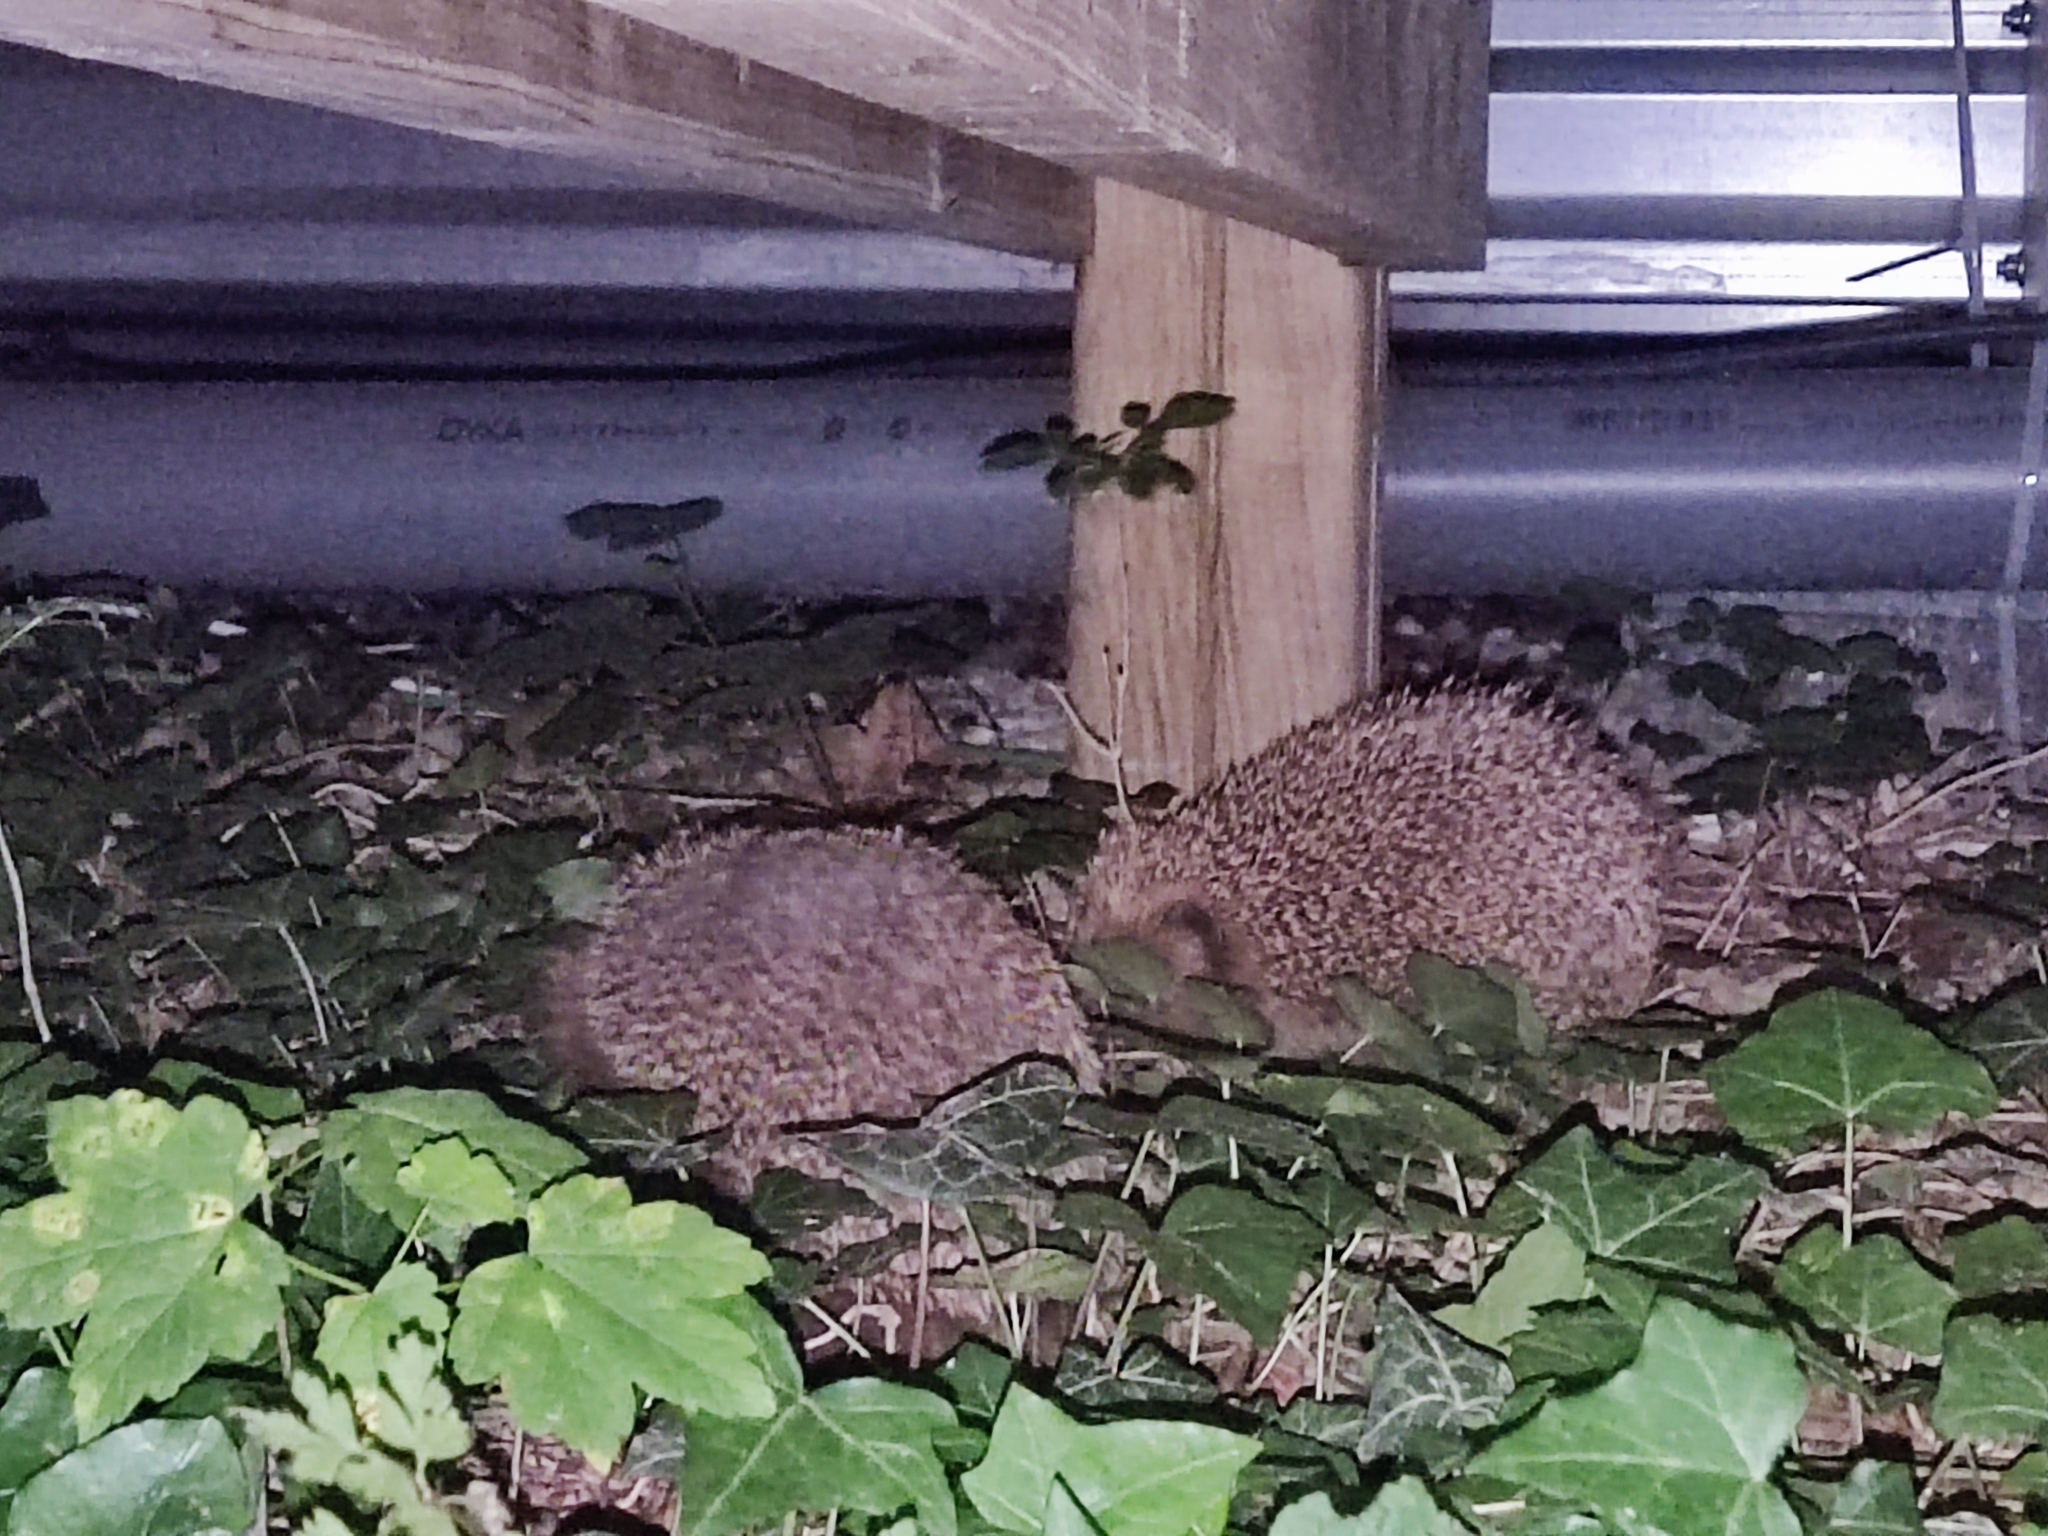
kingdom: Animalia
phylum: Chordata
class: Mammalia
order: Erinaceomorpha
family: Erinaceidae
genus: Erinaceus
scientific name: Erinaceus europaeus
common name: West european hedgehog
